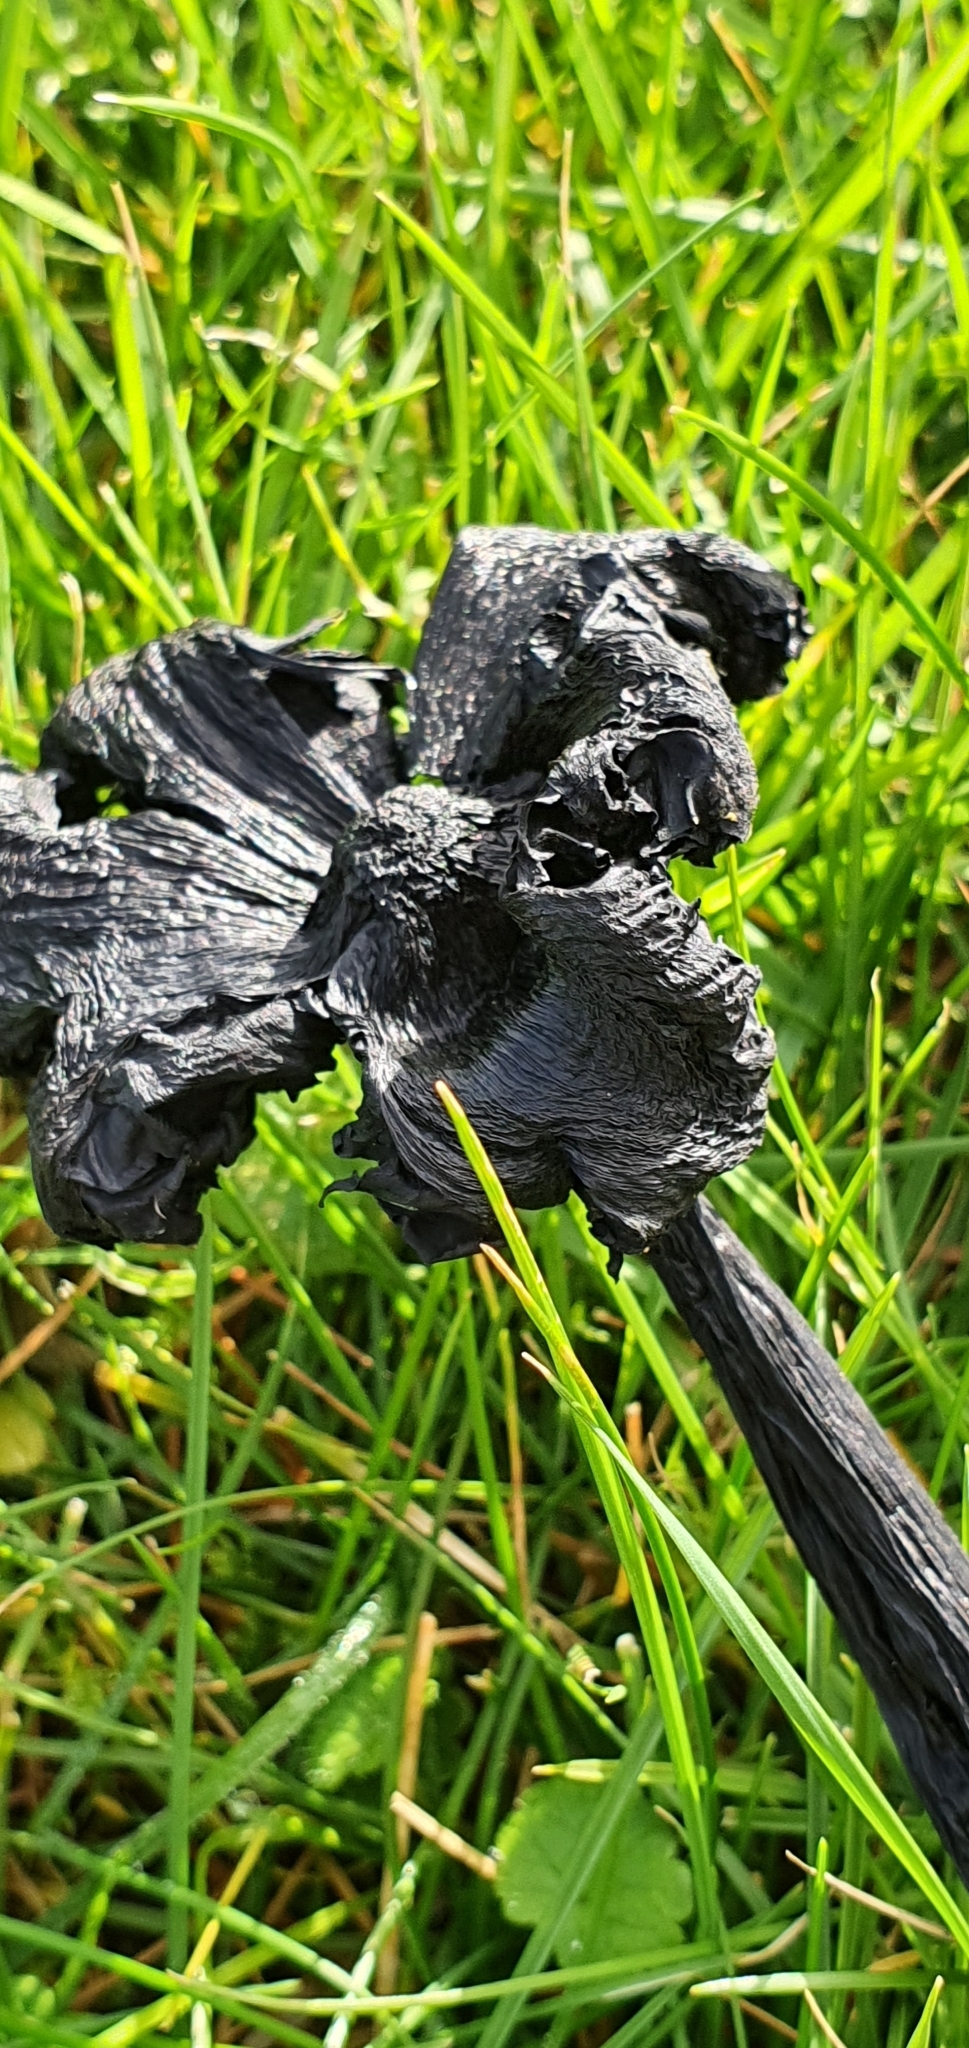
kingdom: Fungi
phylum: Basidiomycota
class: Agaricomycetes
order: Agaricales
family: Hygrophoraceae
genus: Hygrocybe
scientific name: Hygrocybe conica
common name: Blackening wax-cap
